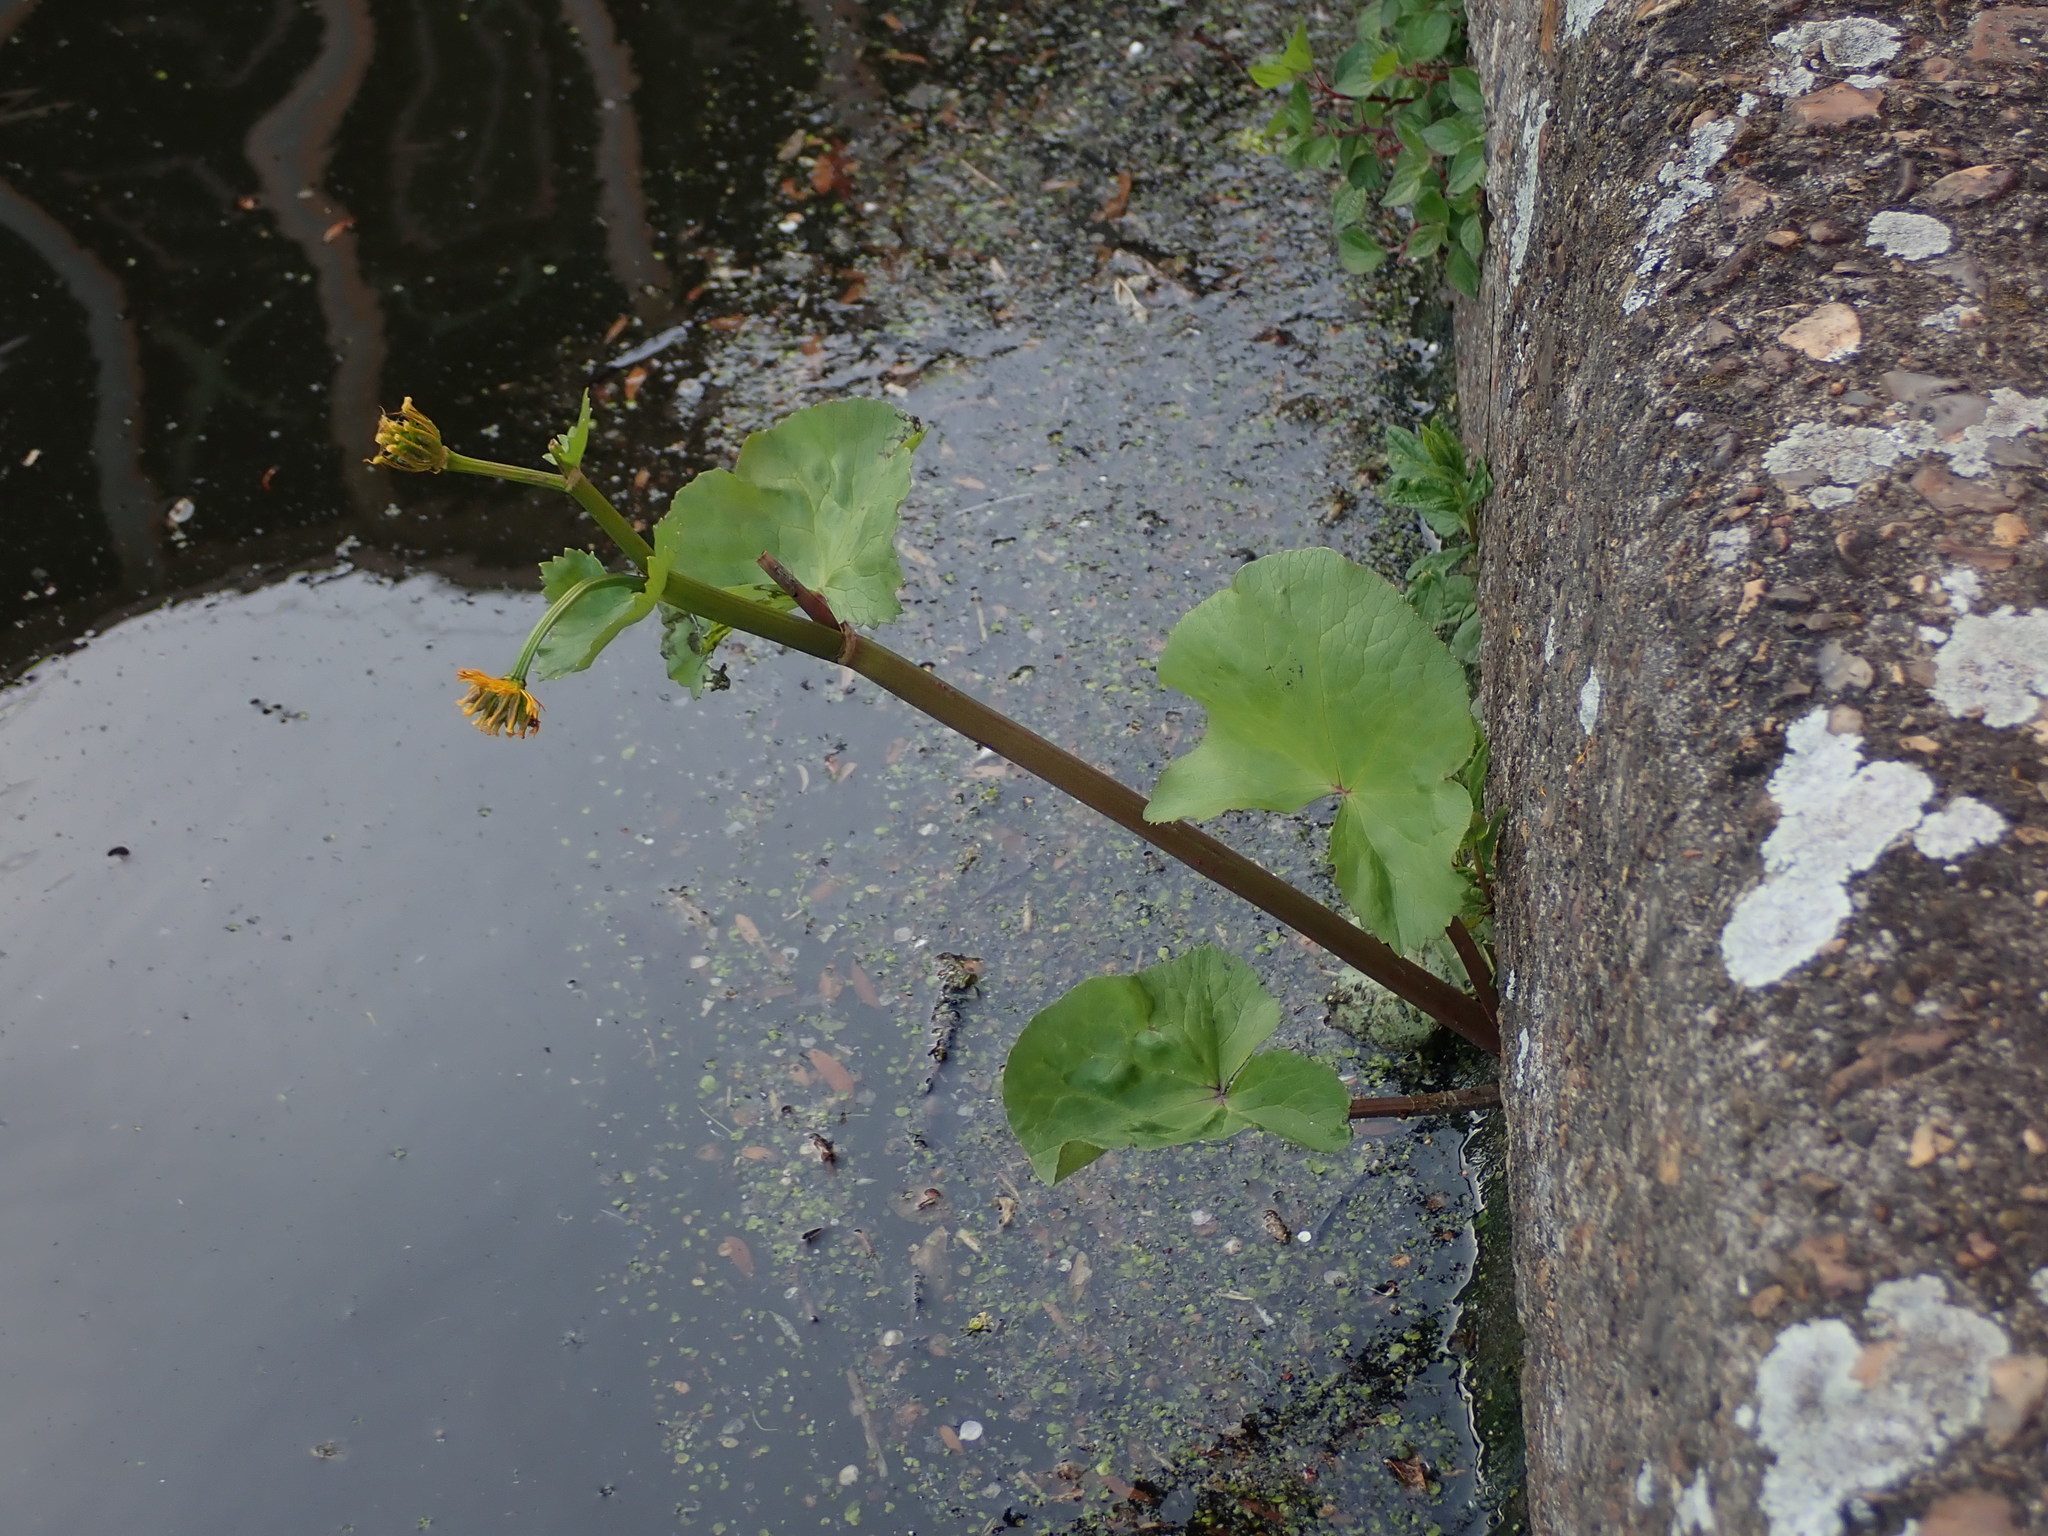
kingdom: Plantae
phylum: Tracheophyta
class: Magnoliopsida
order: Ranunculales
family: Ranunculaceae
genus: Caltha
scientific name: Caltha palustris
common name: Marsh marigold
